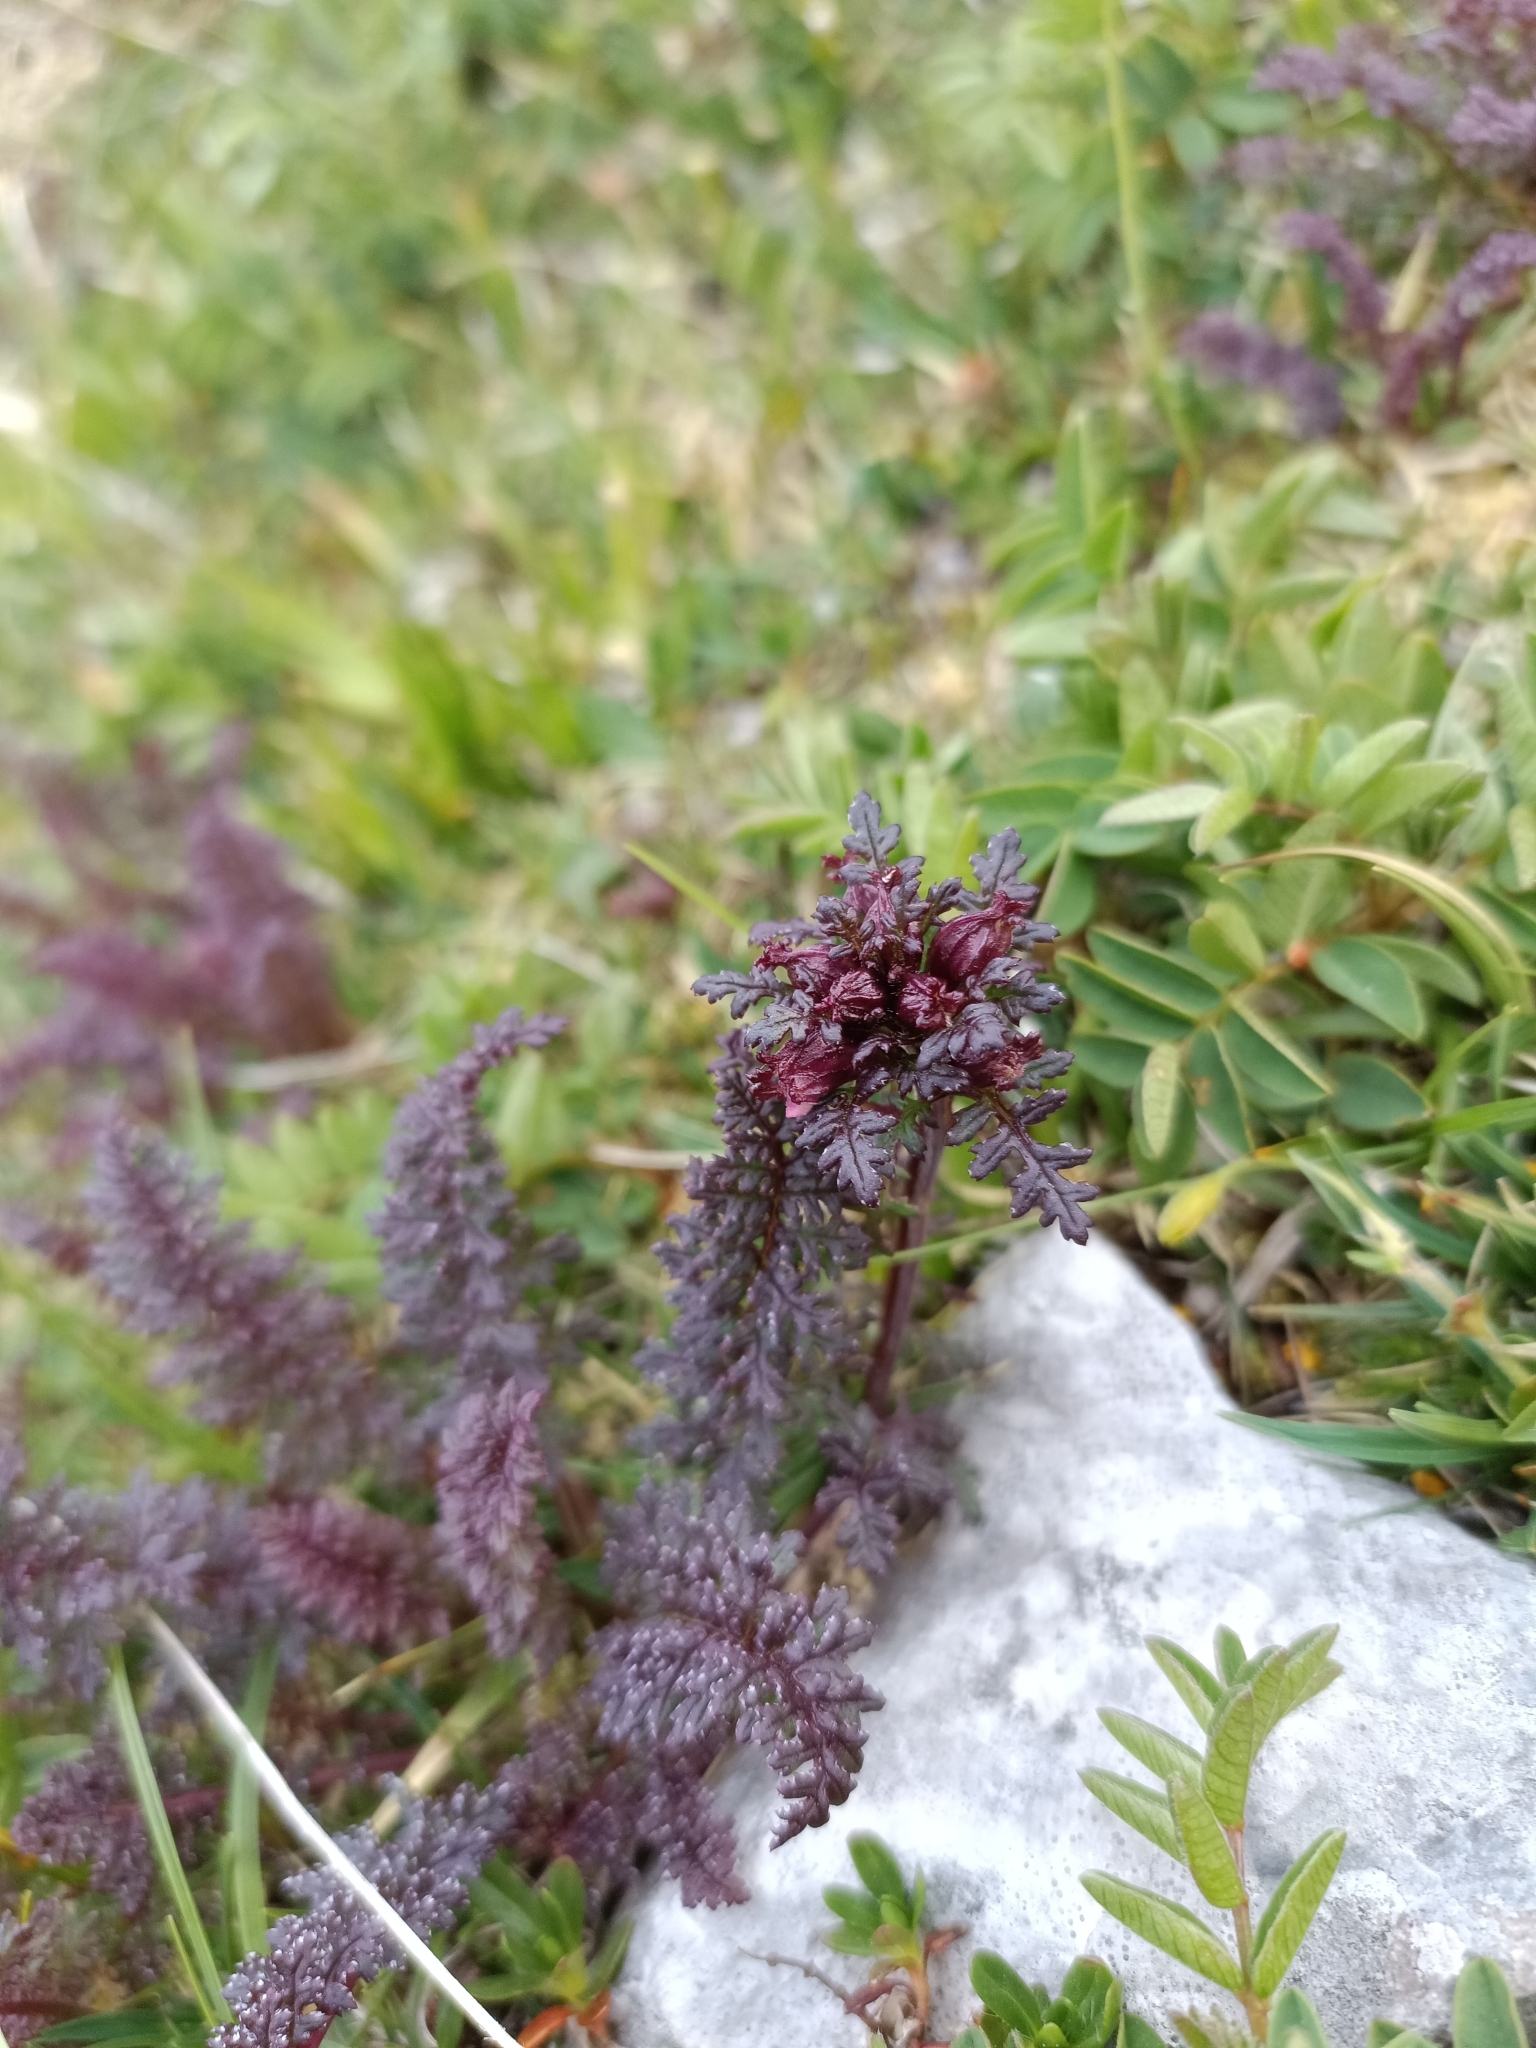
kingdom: Plantae
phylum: Tracheophyta
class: Magnoliopsida
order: Lamiales
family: Orobanchaceae
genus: Pedicularis
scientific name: Pedicularis rostratocapitata
